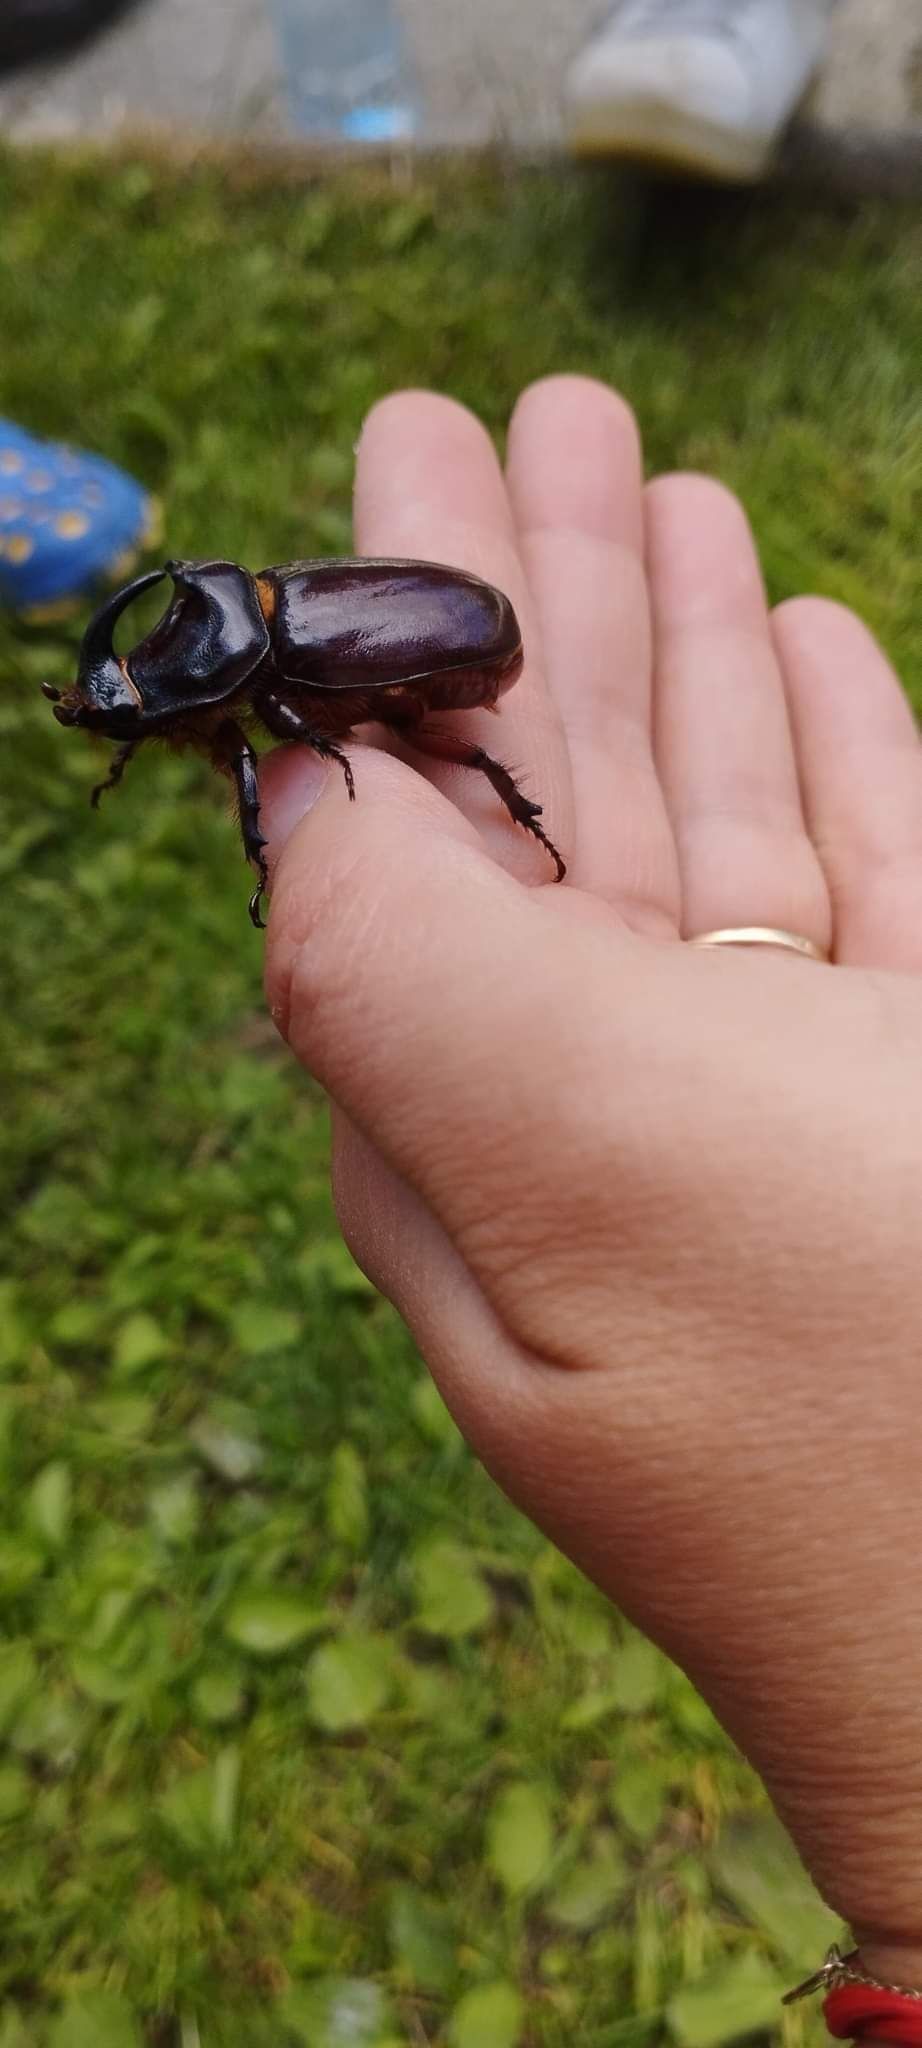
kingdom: Animalia
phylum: Arthropoda
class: Insecta
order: Coleoptera
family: Scarabaeidae
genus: Oryctes
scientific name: Oryctes nasicornis
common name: European rhinoceros beetle
